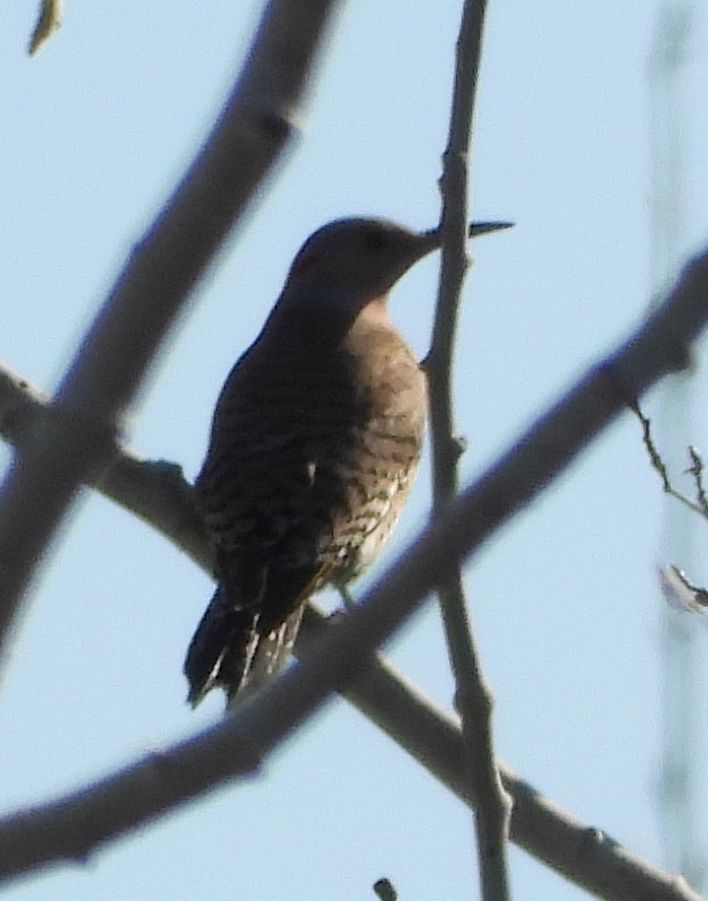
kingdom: Animalia
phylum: Chordata
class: Aves
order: Piciformes
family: Picidae
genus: Colaptes
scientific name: Colaptes auratus
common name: Northern flicker
